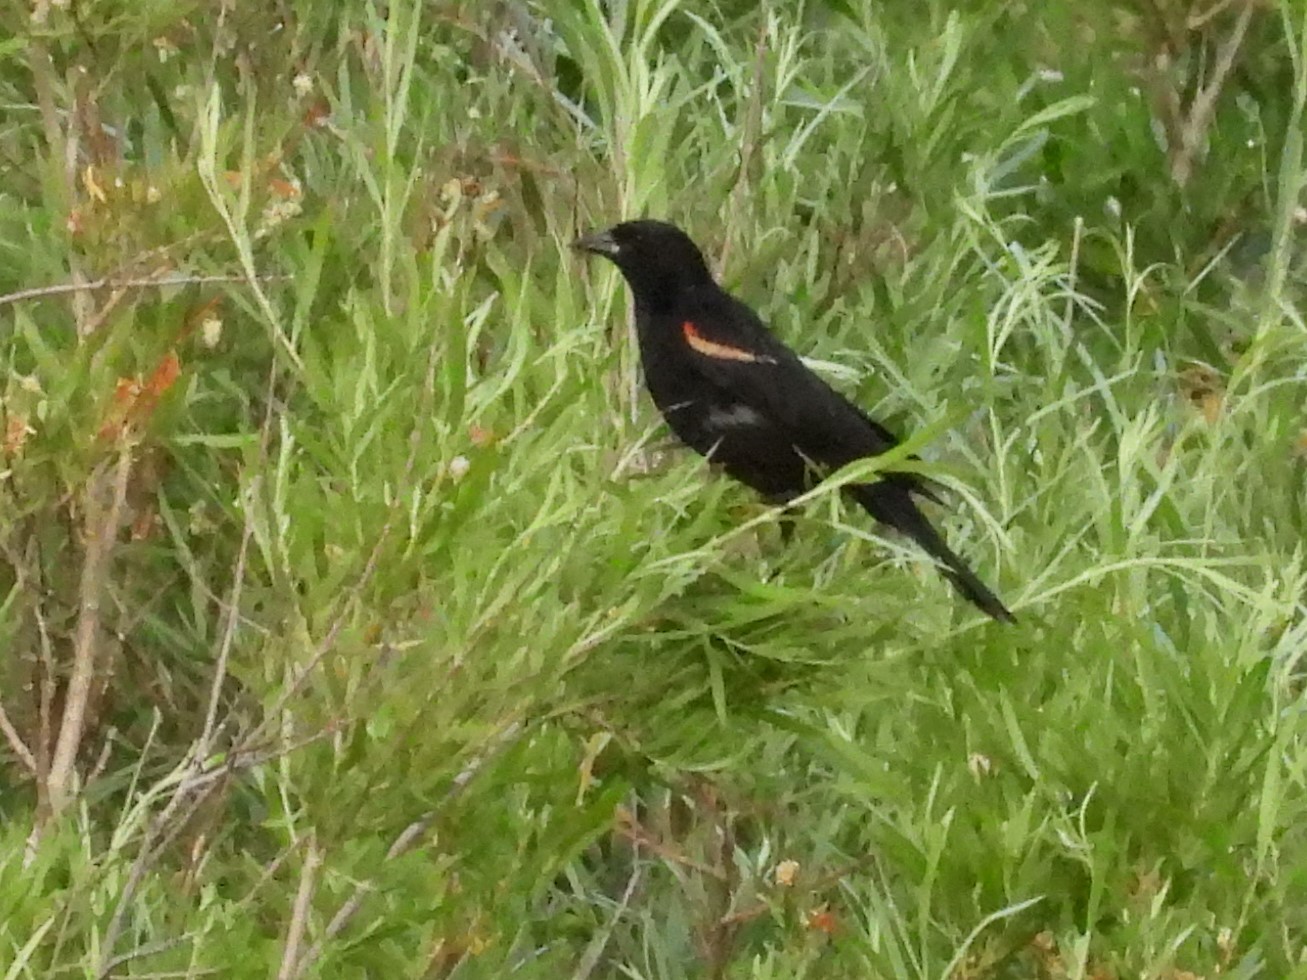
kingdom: Animalia
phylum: Chordata
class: Aves
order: Passeriformes
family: Icteridae
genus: Agelaius
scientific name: Agelaius phoeniceus
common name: Red-winged blackbird
